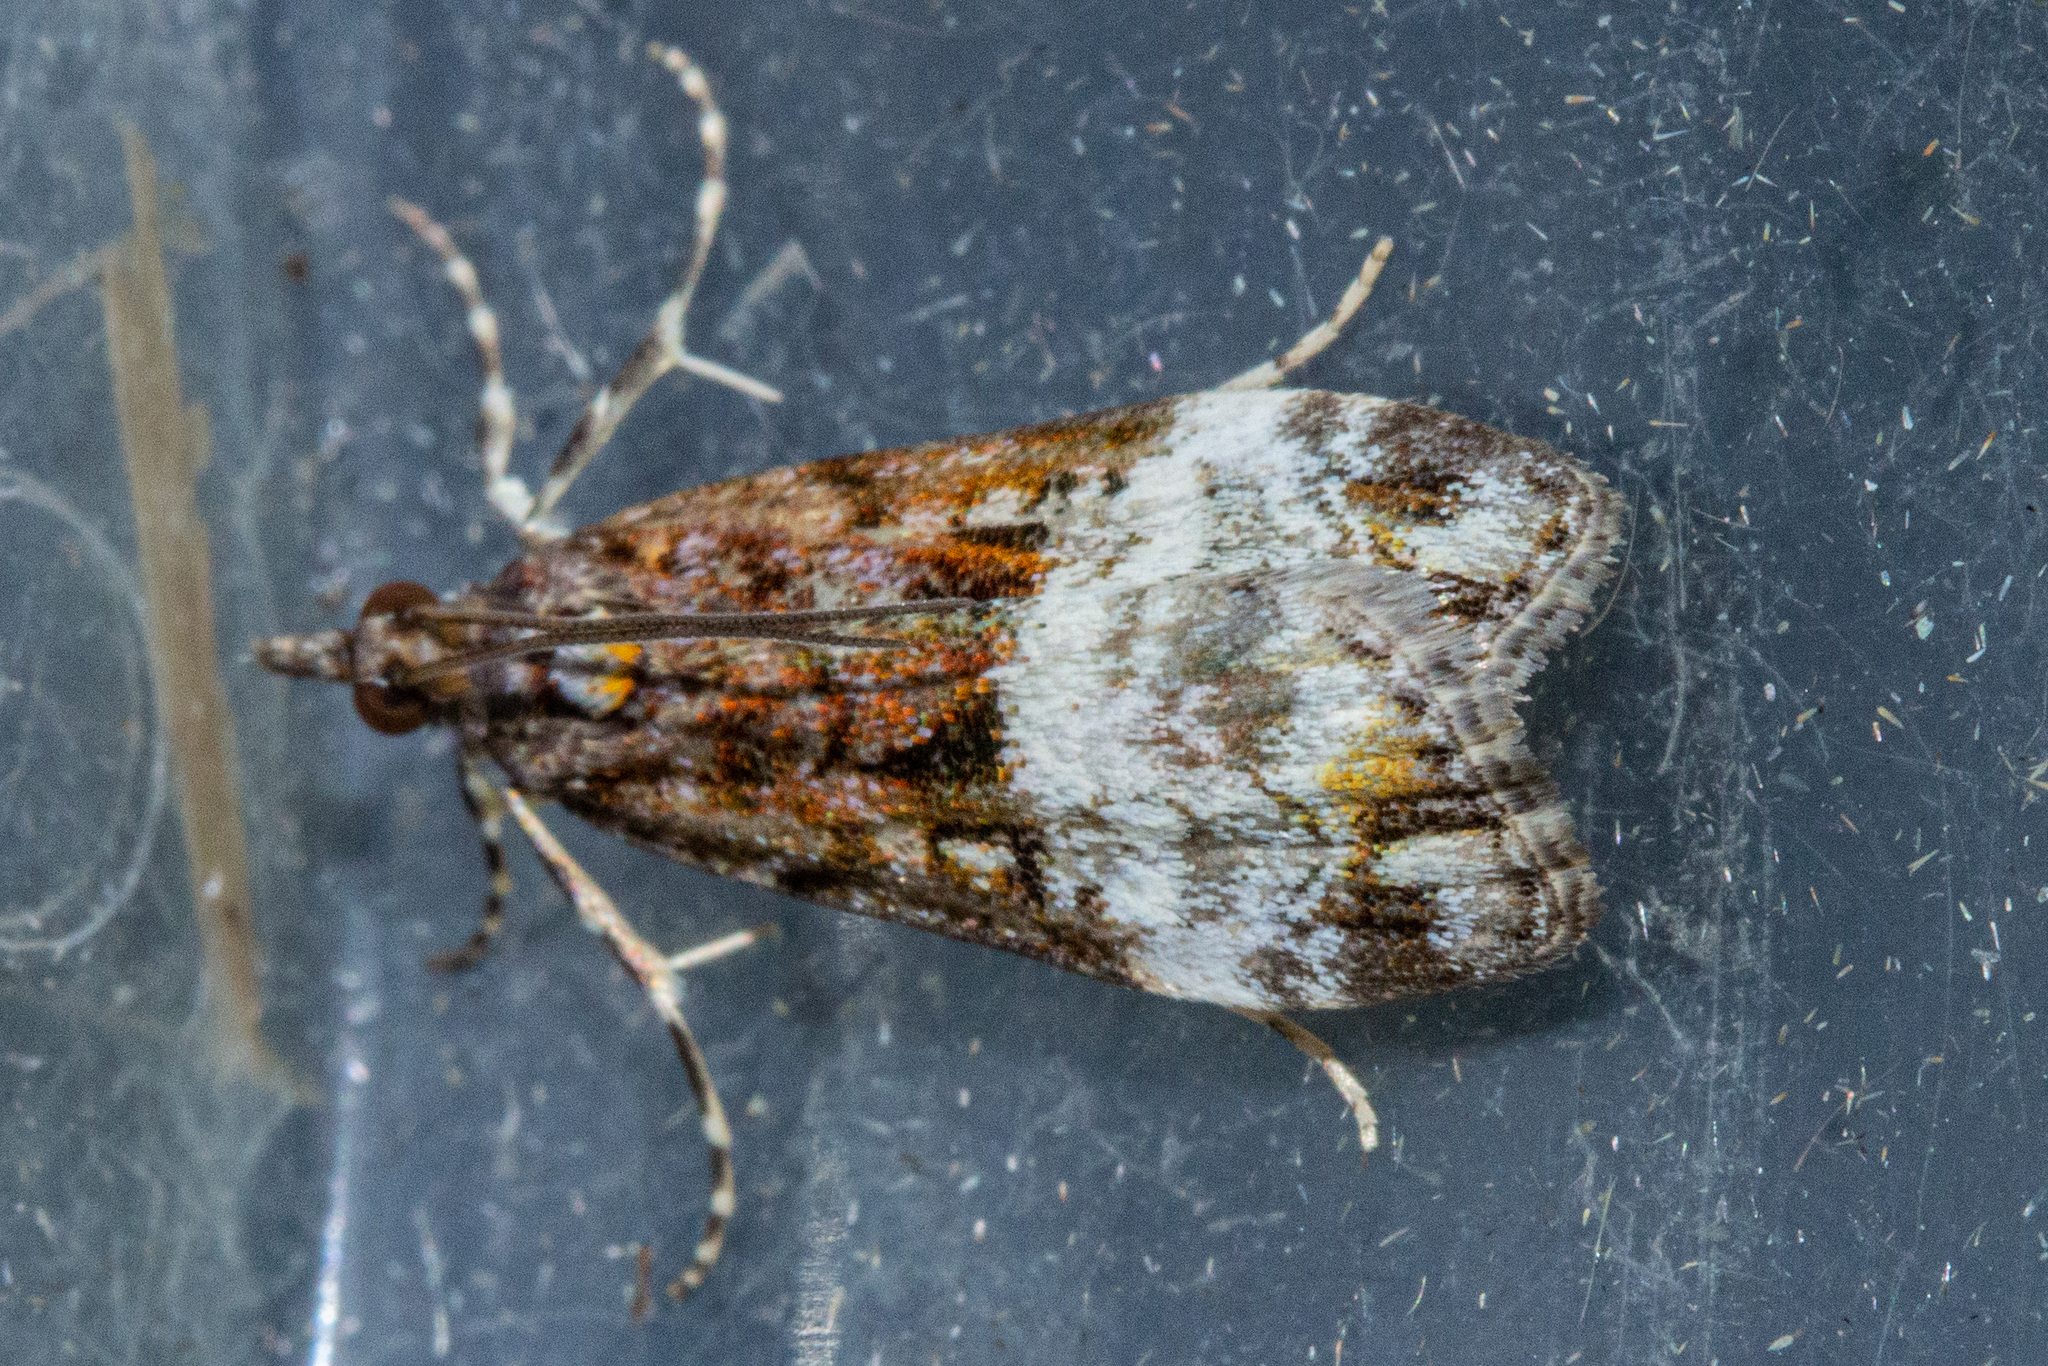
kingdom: Animalia
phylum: Arthropoda
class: Insecta
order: Lepidoptera
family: Crambidae
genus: Scoparia
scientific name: Scoparia minusculalis
